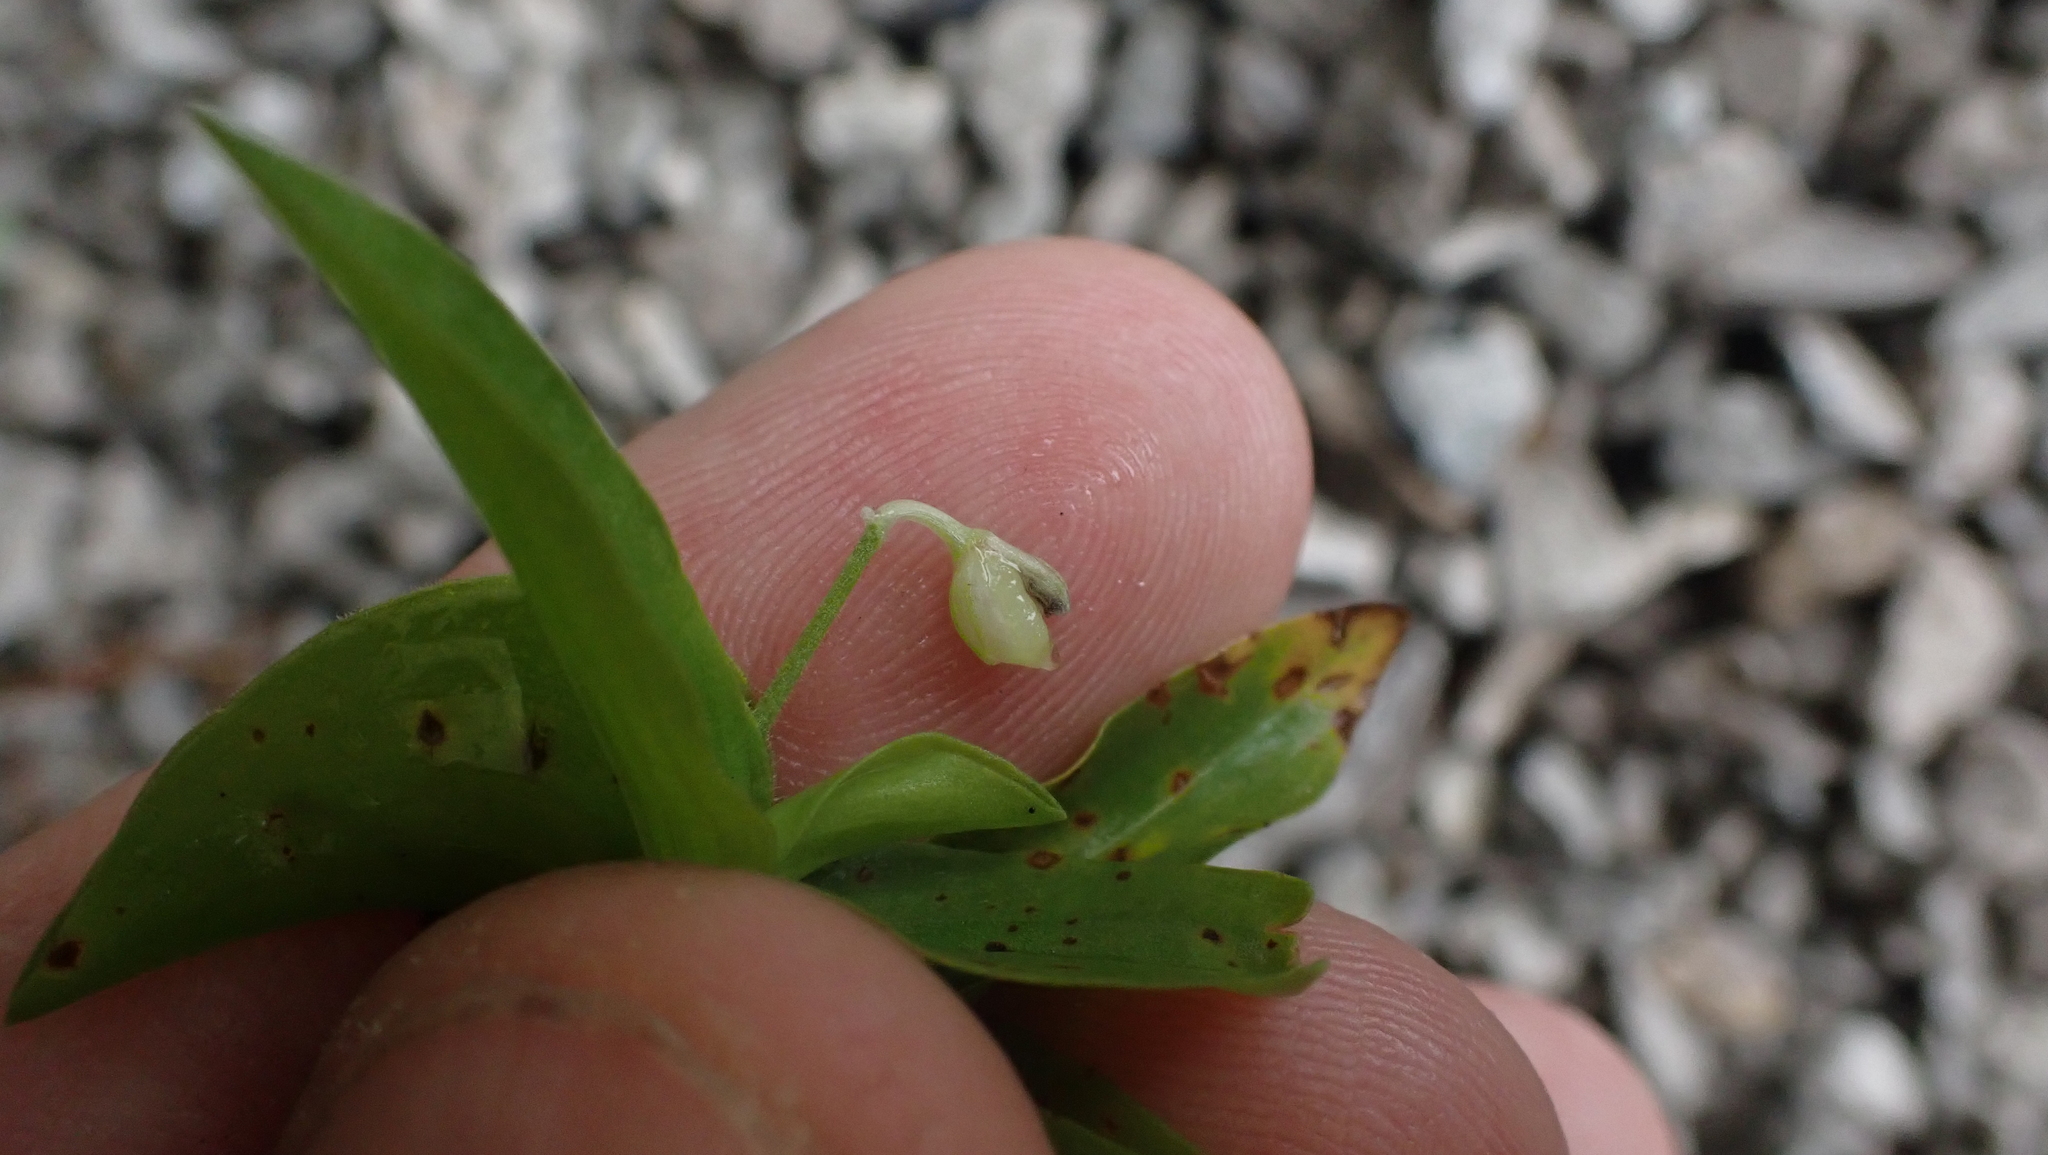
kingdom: Plantae
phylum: Tracheophyta
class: Liliopsida
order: Commelinales
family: Commelinaceae
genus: Commelina
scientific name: Commelina diffusa
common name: Climbing dayflower
